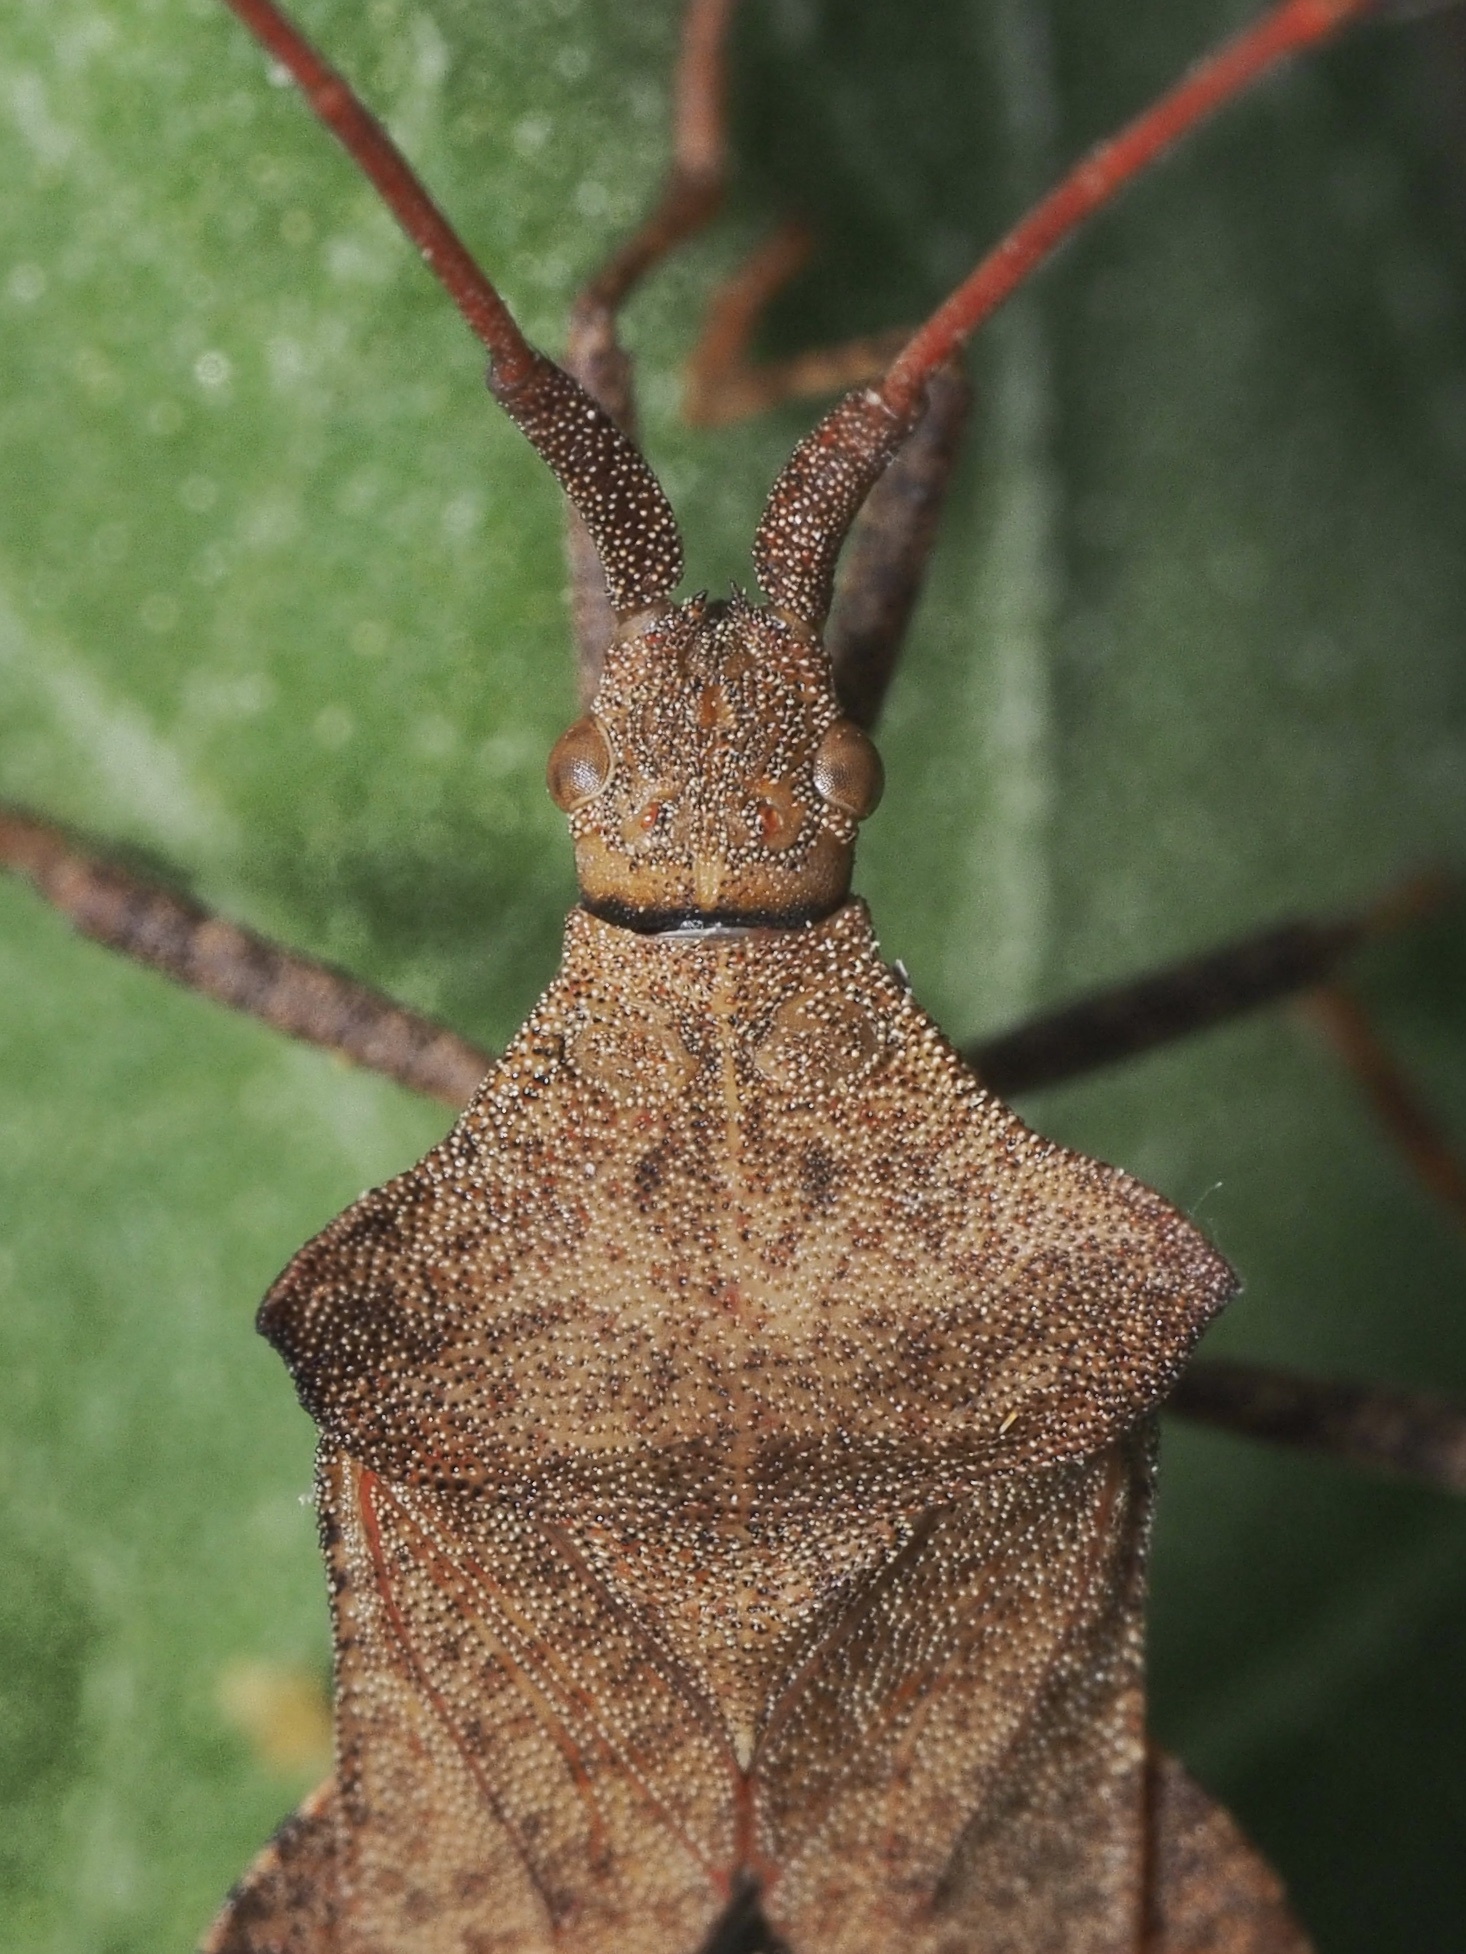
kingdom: Animalia
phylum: Arthropoda
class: Insecta
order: Hemiptera
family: Coreidae
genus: Coreus
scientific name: Coreus marginatus
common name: Dock bug
